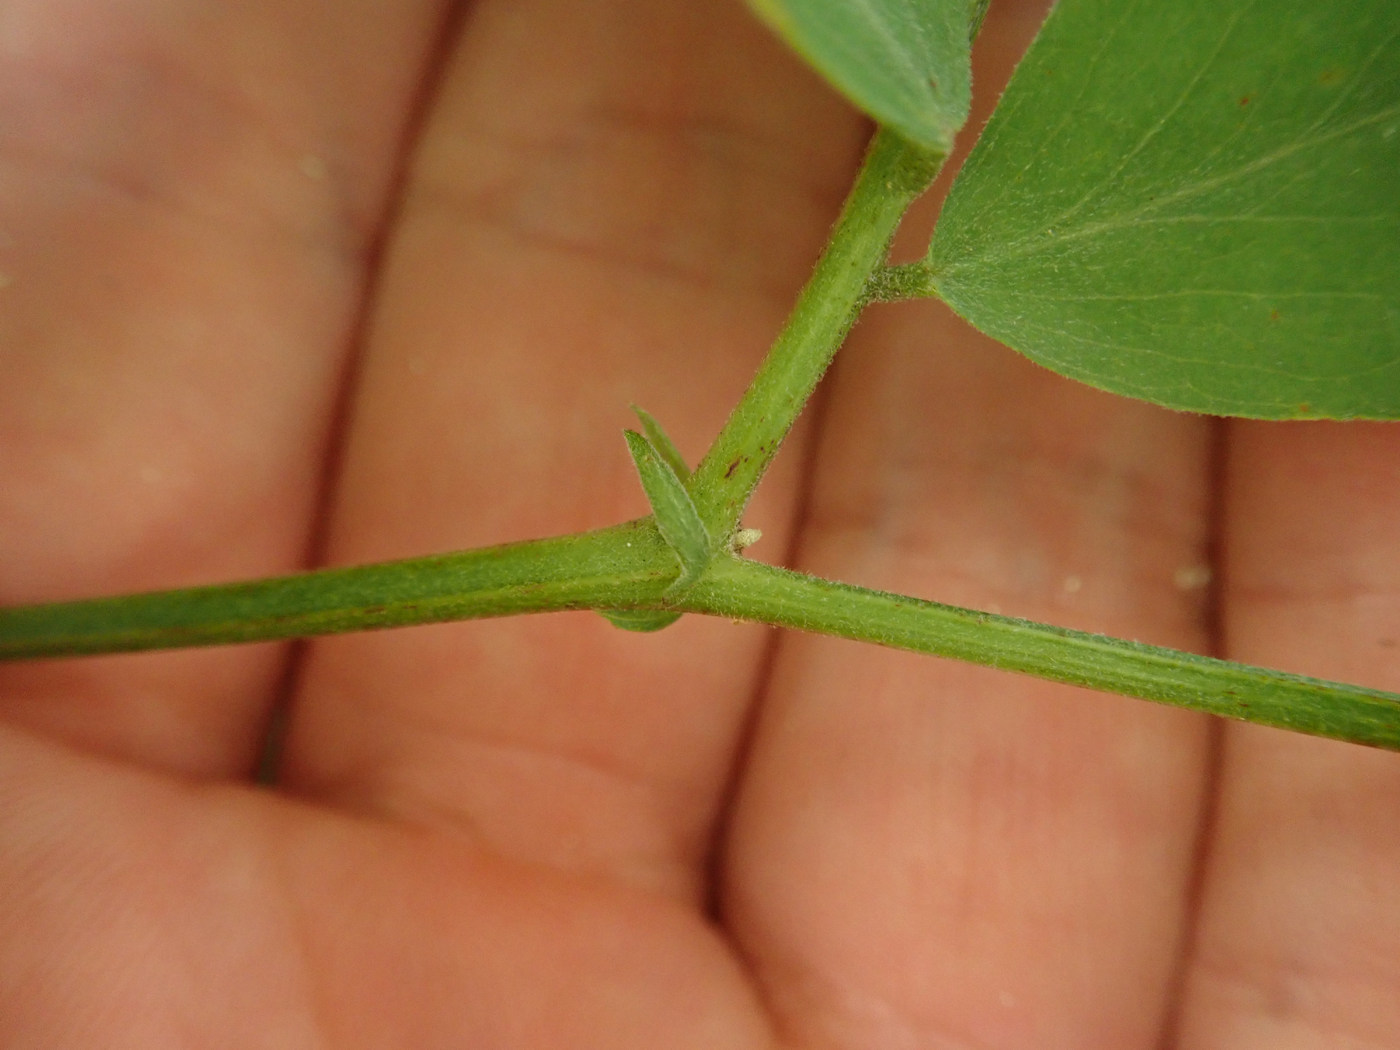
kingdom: Plantae
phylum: Tracheophyta
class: Magnoliopsida
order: Fabales
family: Fabaceae
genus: Lathyrus
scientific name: Lathyrus venosus
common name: Forest-pea
